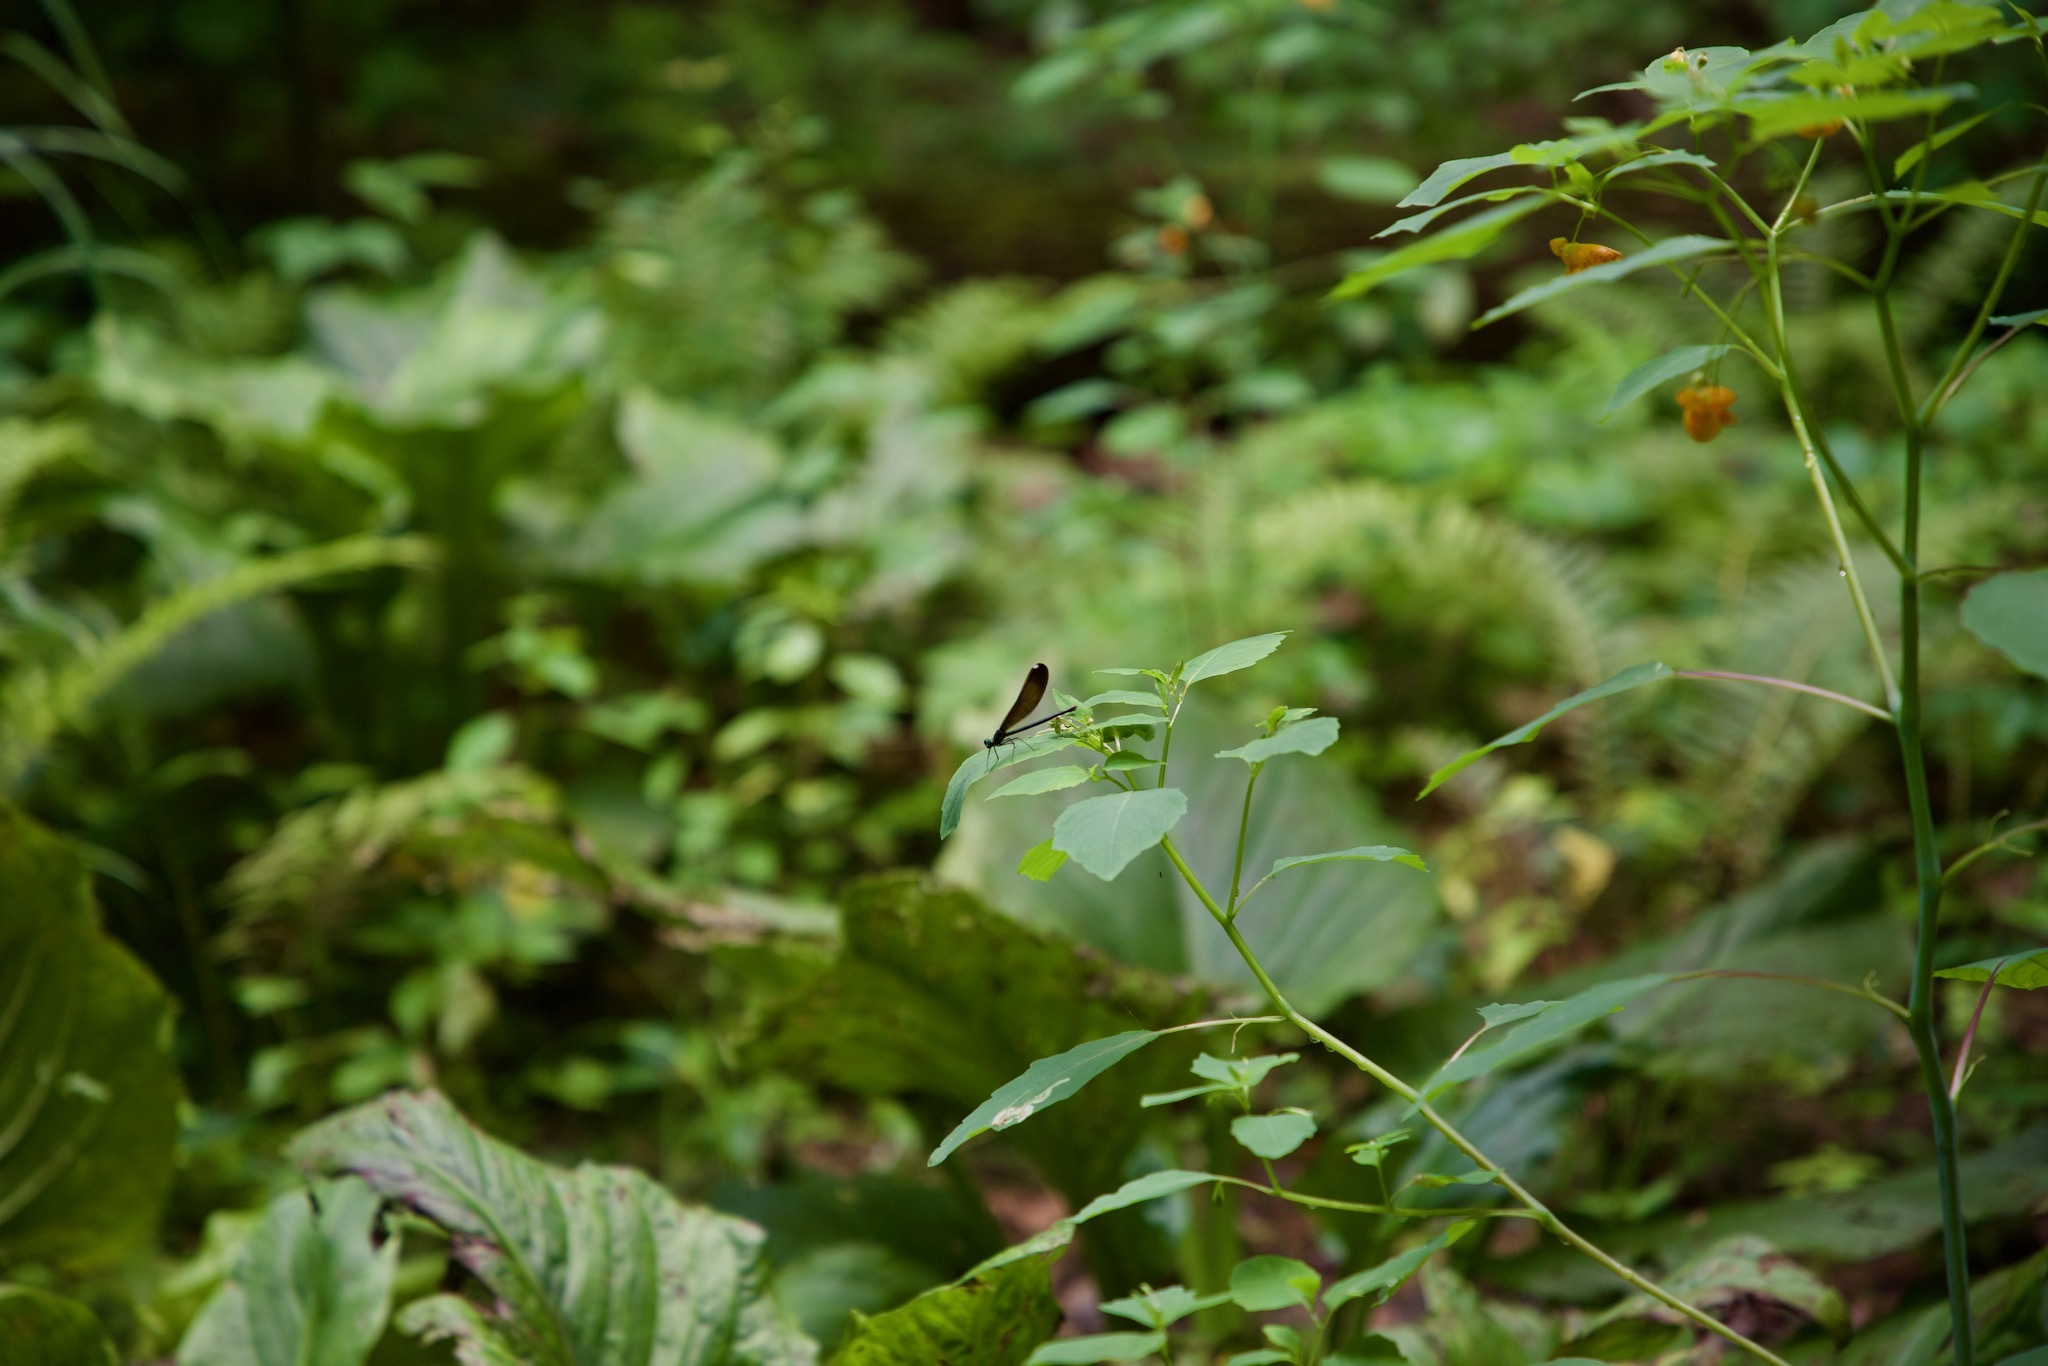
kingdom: Animalia
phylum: Arthropoda
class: Insecta
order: Odonata
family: Calopterygidae
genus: Calopteryx
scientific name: Calopteryx maculata
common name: Ebony jewelwing
